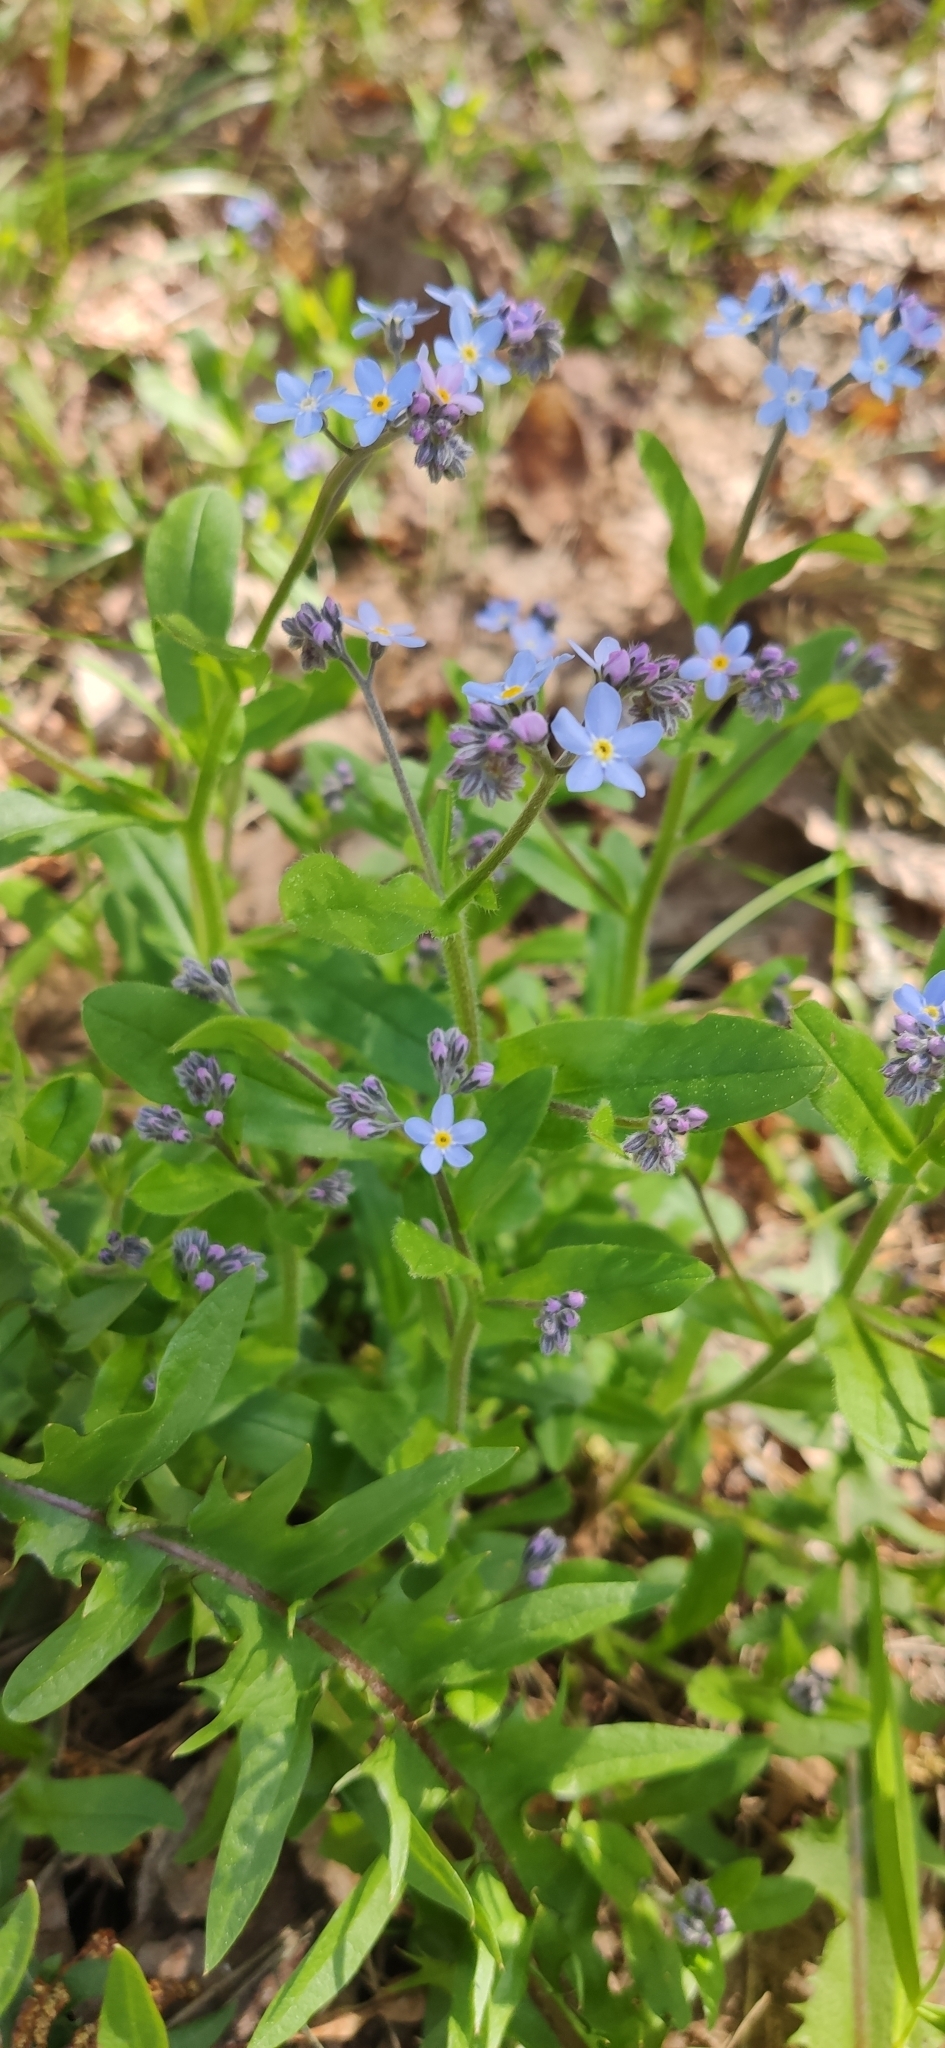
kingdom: Plantae
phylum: Tracheophyta
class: Magnoliopsida
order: Boraginales
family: Boraginaceae
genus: Myosotis
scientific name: Myosotis sylvatica
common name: Wood forget-me-not
